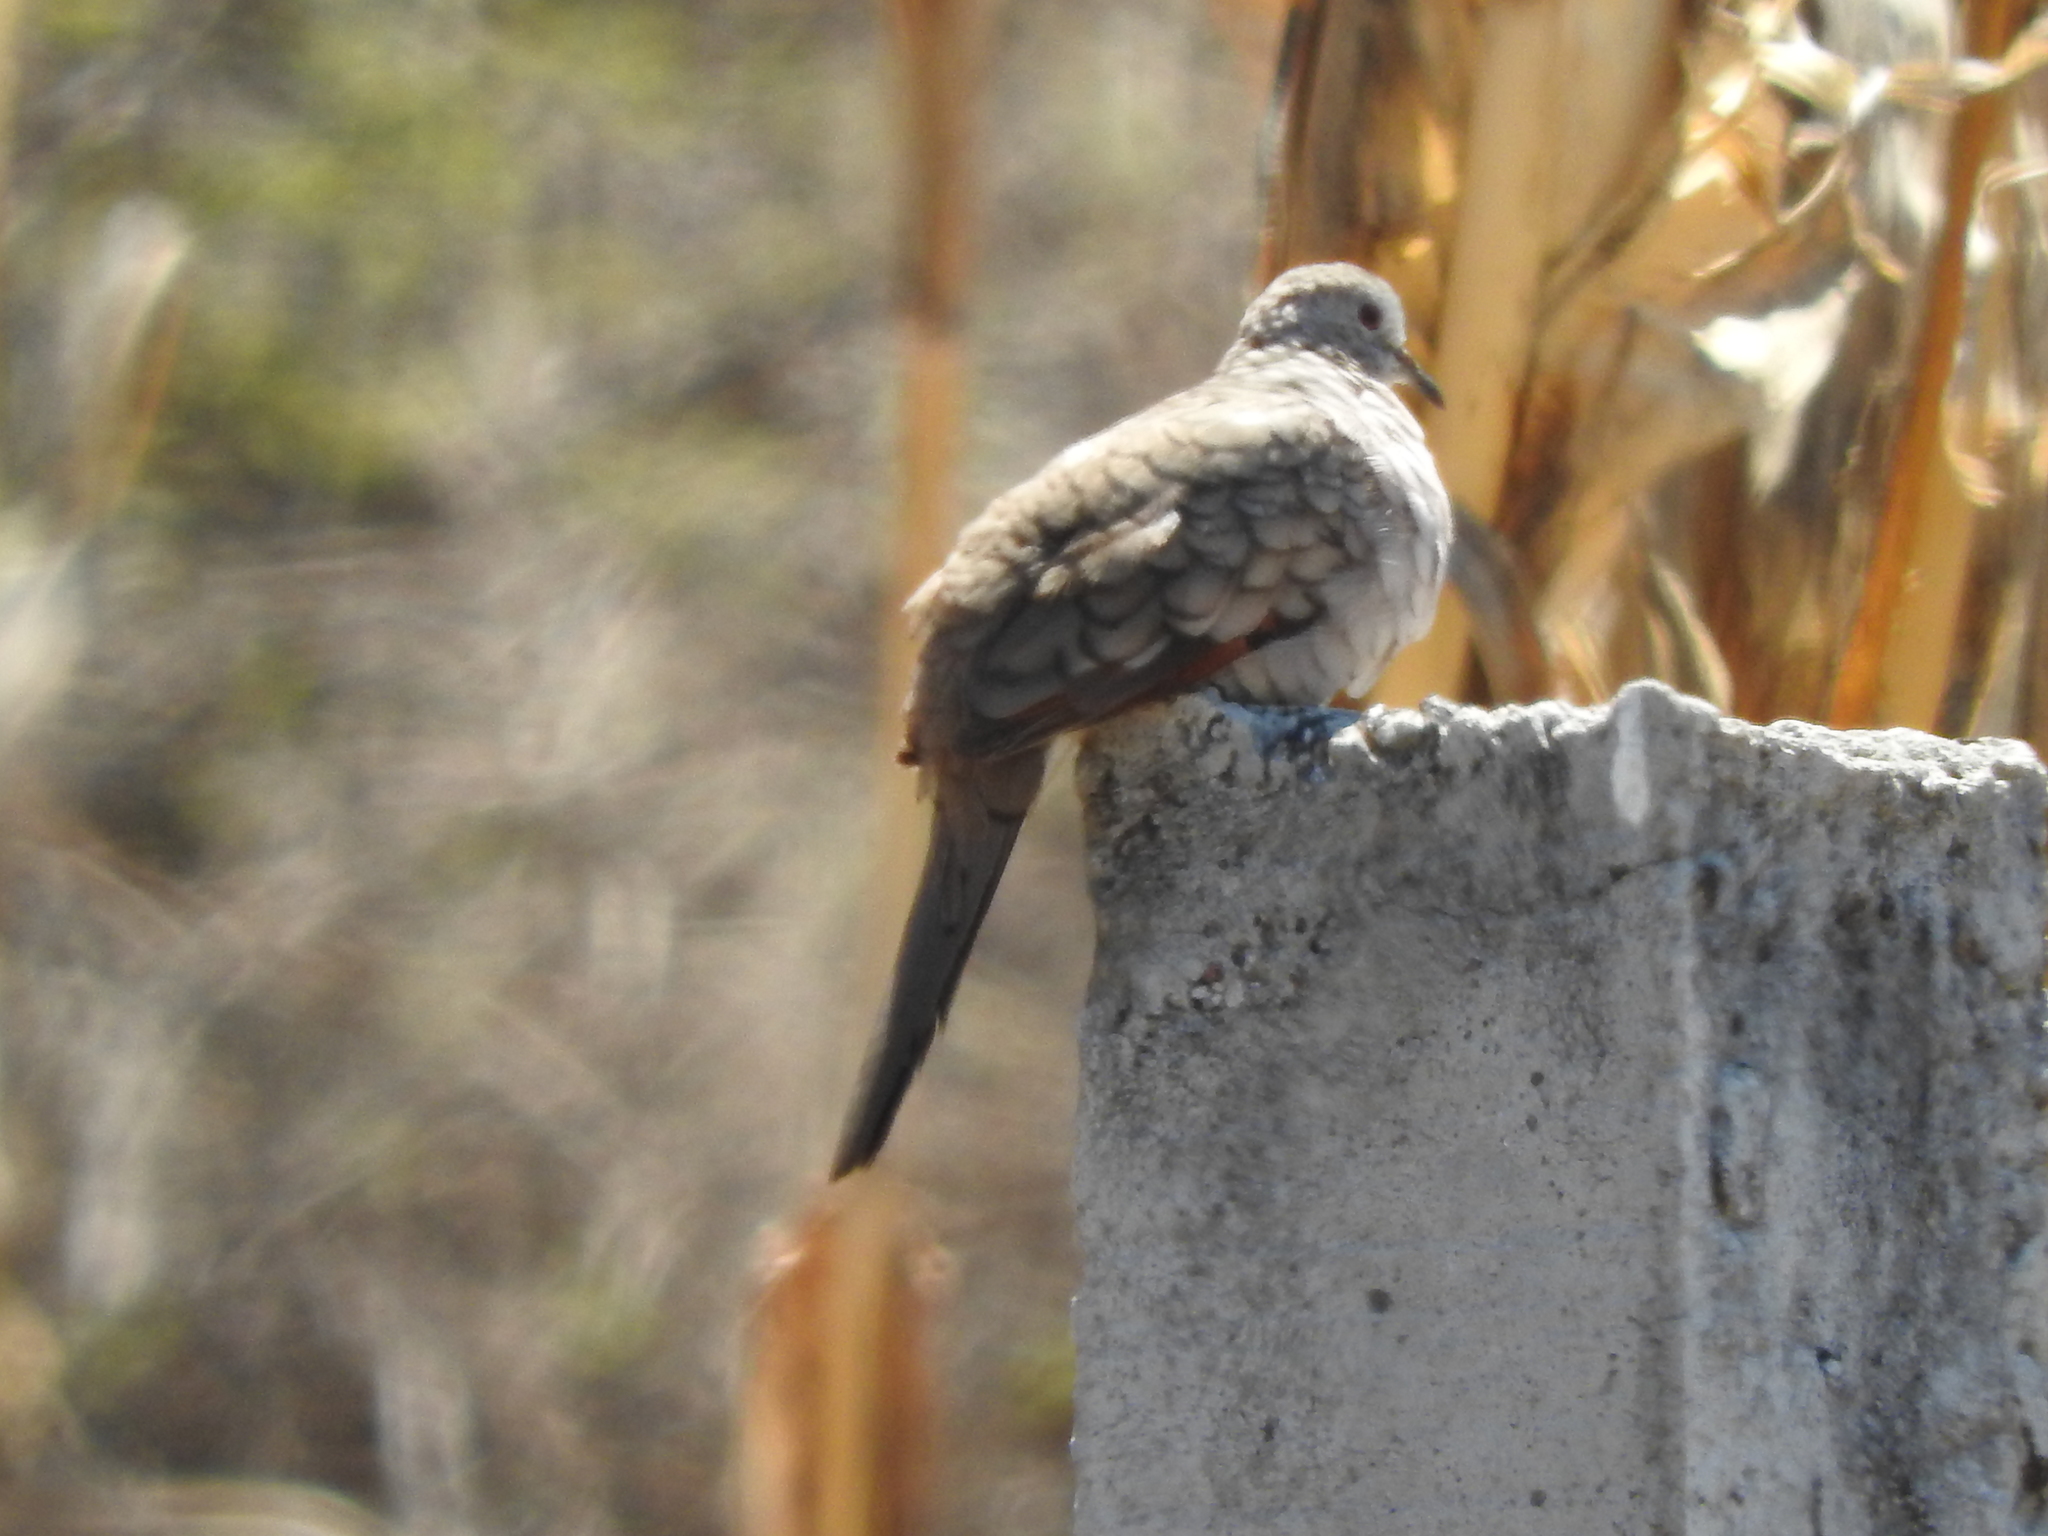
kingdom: Animalia
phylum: Chordata
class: Aves
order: Columbiformes
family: Columbidae
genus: Columbina
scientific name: Columbina inca
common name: Inca dove
